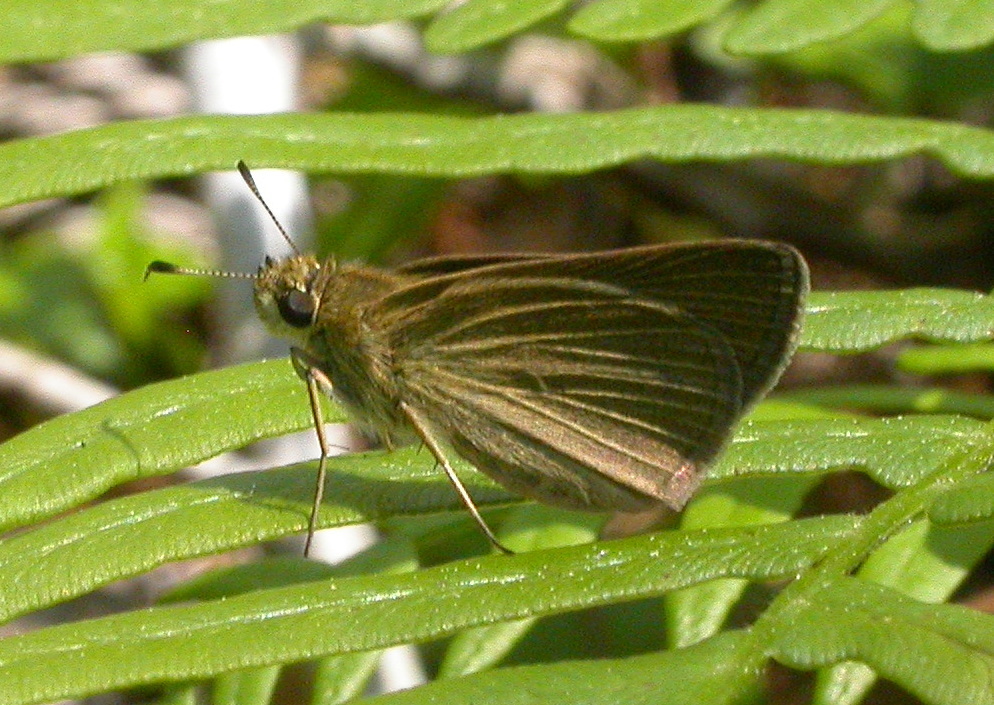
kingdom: Animalia
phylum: Arthropoda
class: Insecta
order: Lepidoptera
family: Hesperiidae
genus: Nastra
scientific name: Nastra lherminier
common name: Swarthy skipper
